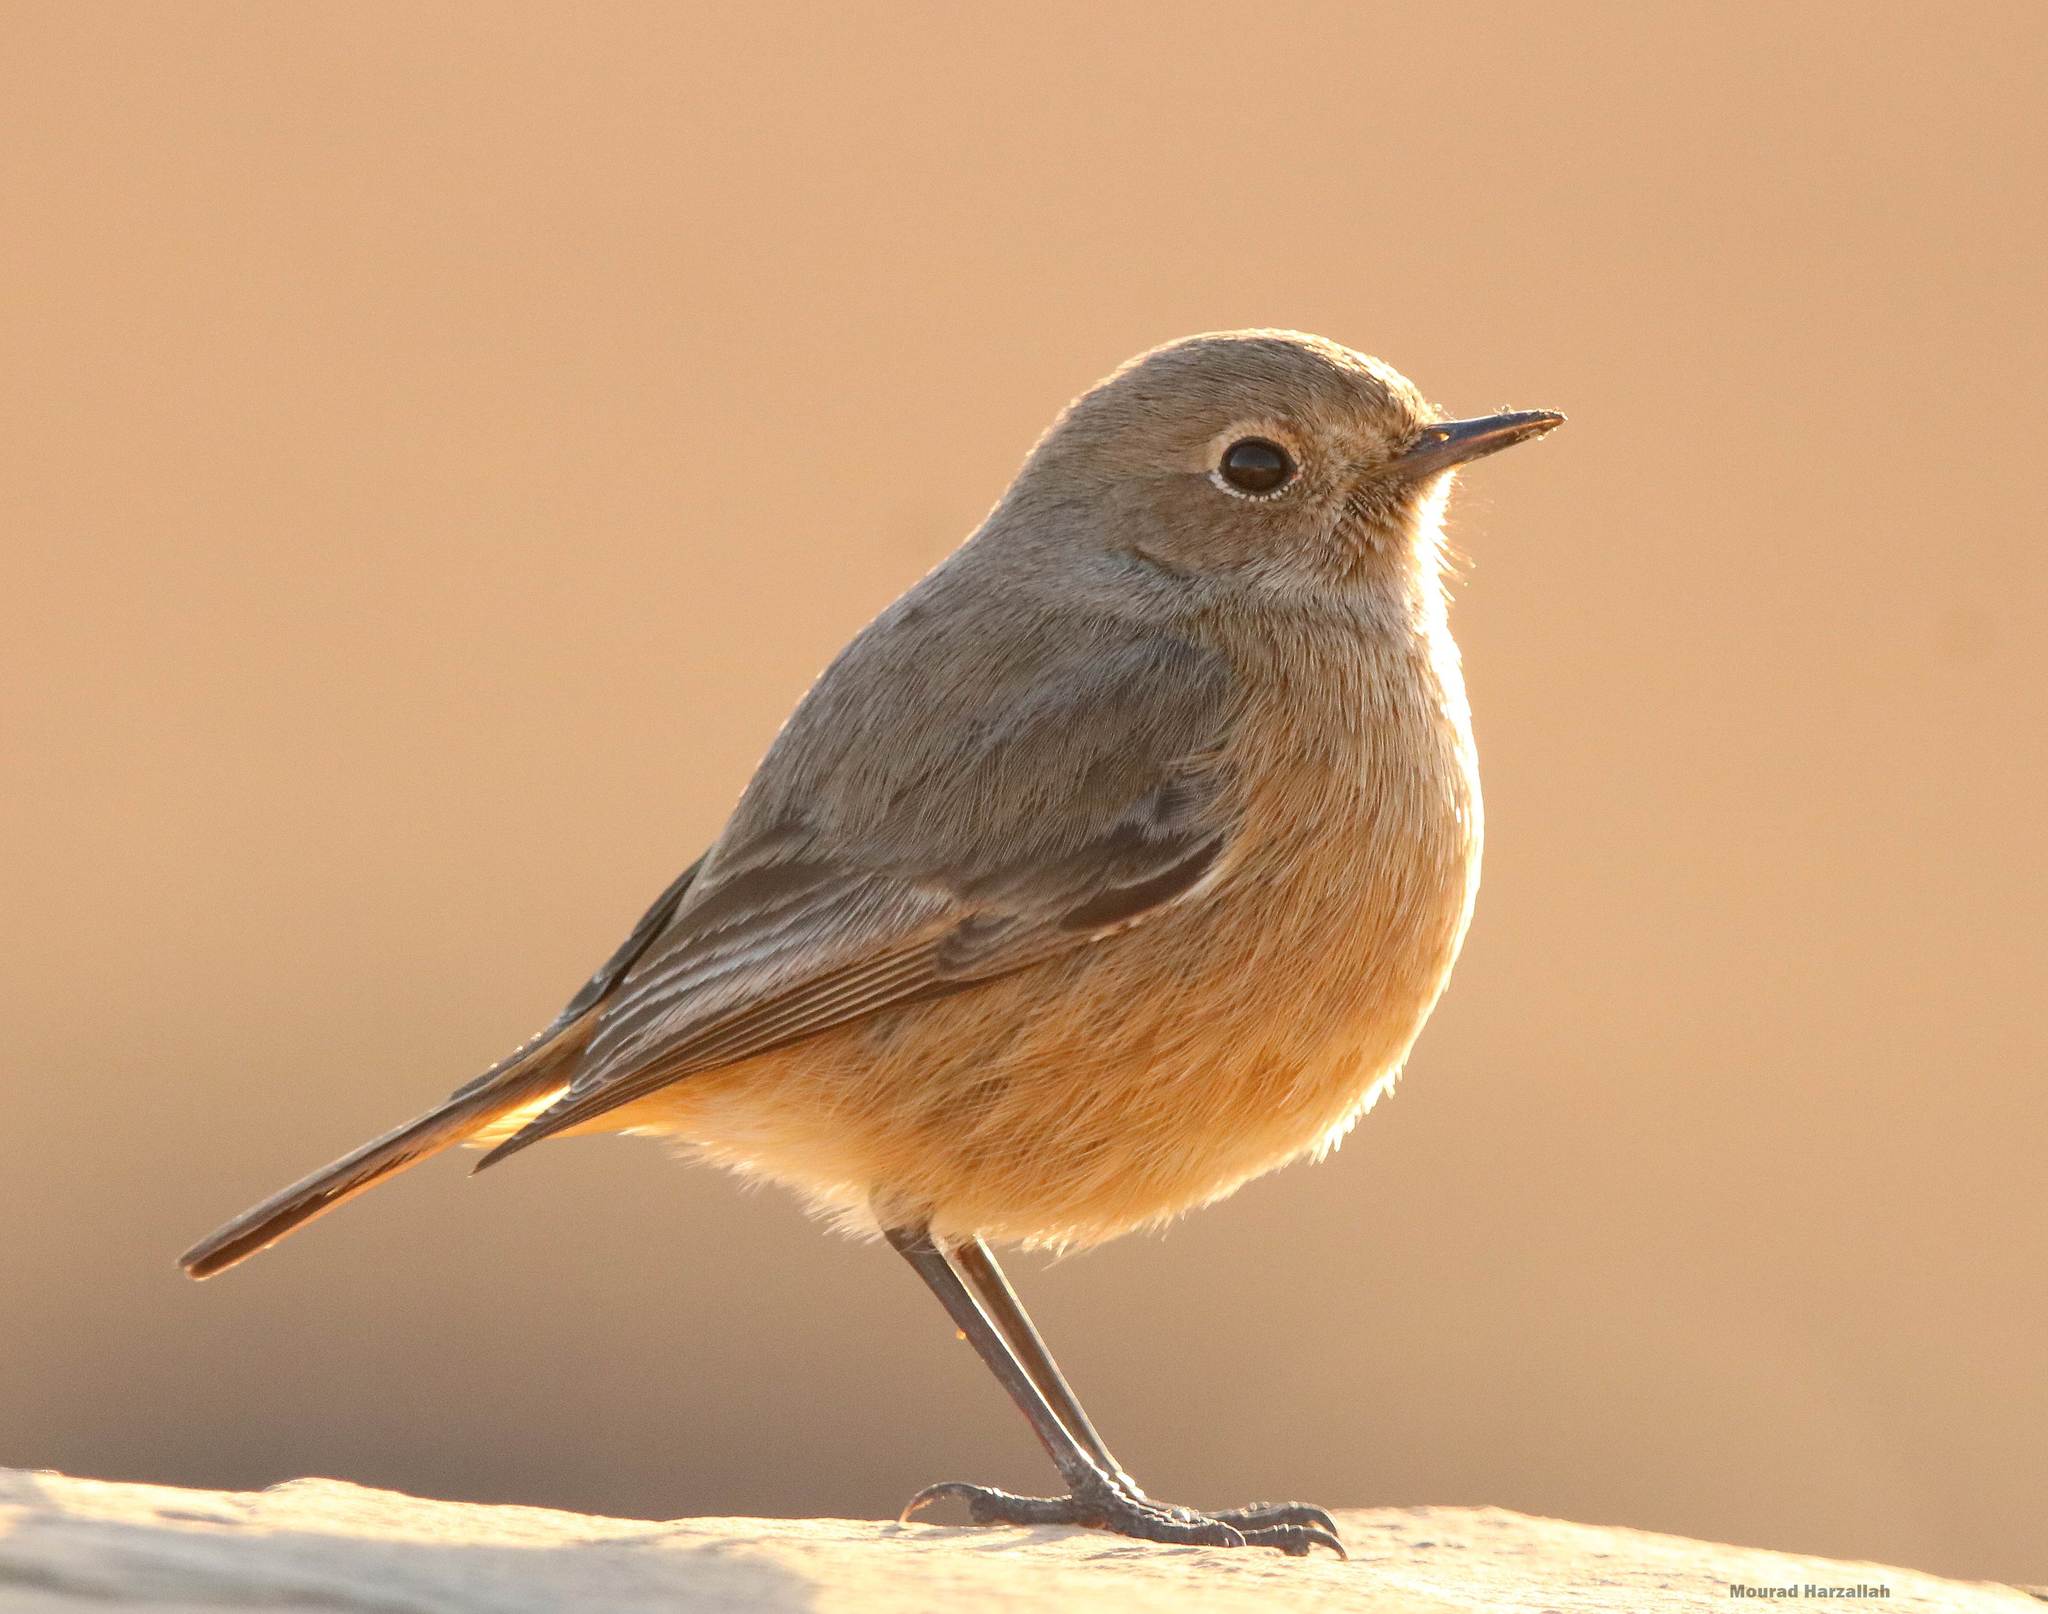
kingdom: Animalia
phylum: Chordata
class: Aves
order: Passeriformes
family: Muscicapidae
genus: Phoenicurus
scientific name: Phoenicurus ochruros
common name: Black redstart
